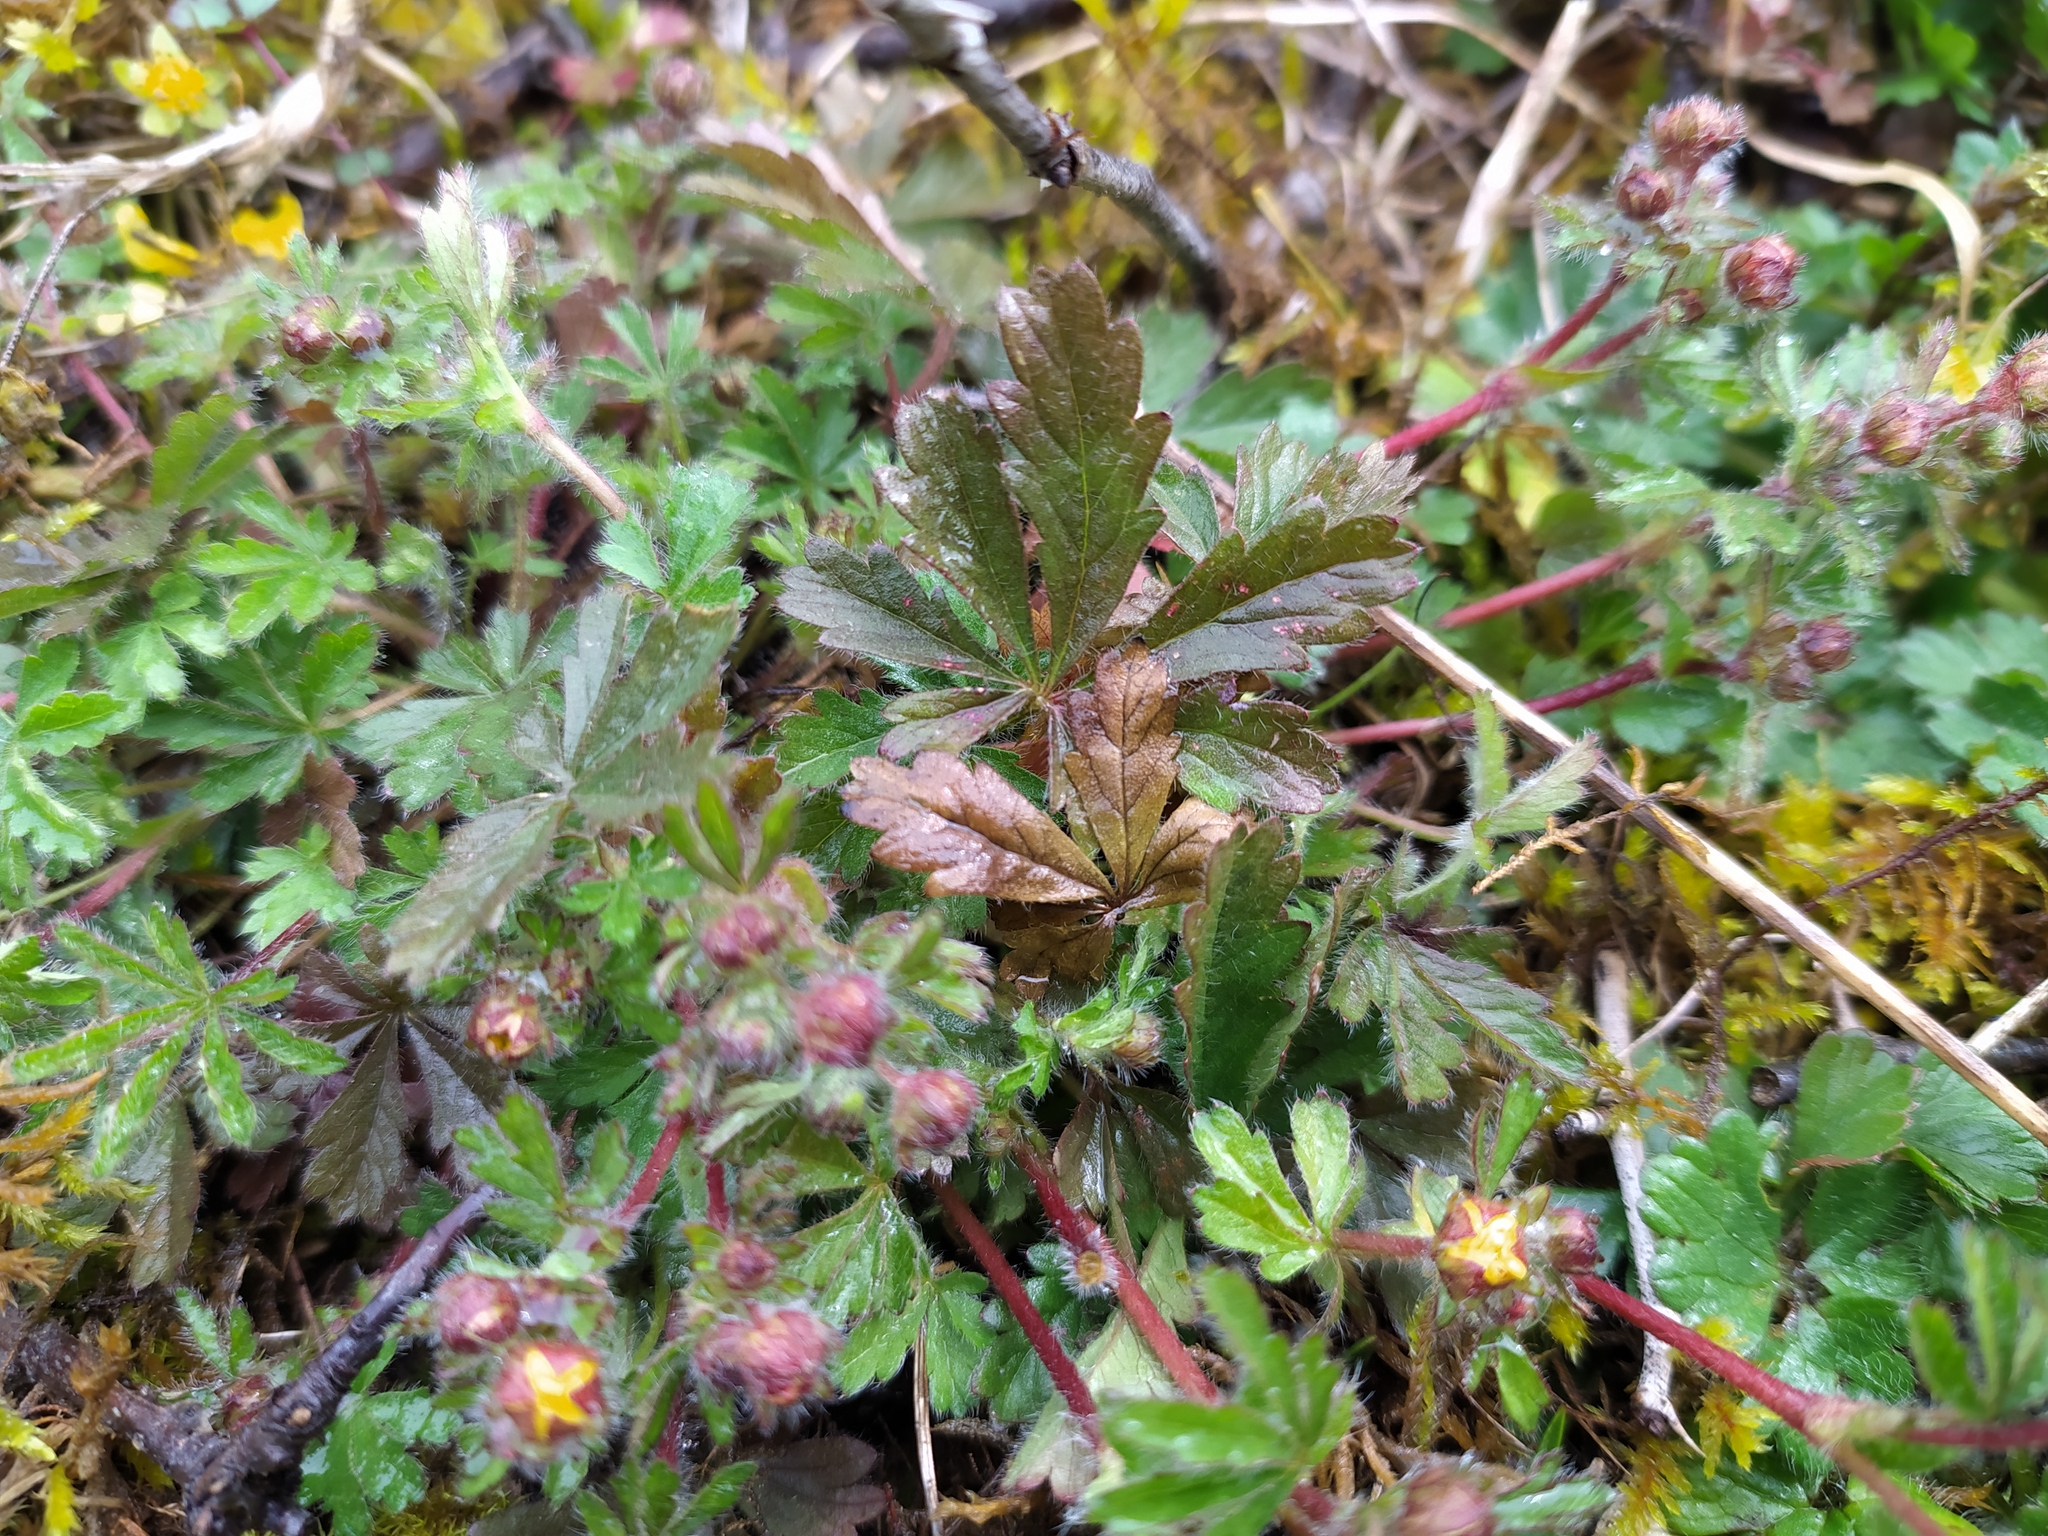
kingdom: Plantae
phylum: Tracheophyta
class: Magnoliopsida
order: Rosales
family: Rosaceae
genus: Potentilla
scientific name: Potentilla heptaphylla
